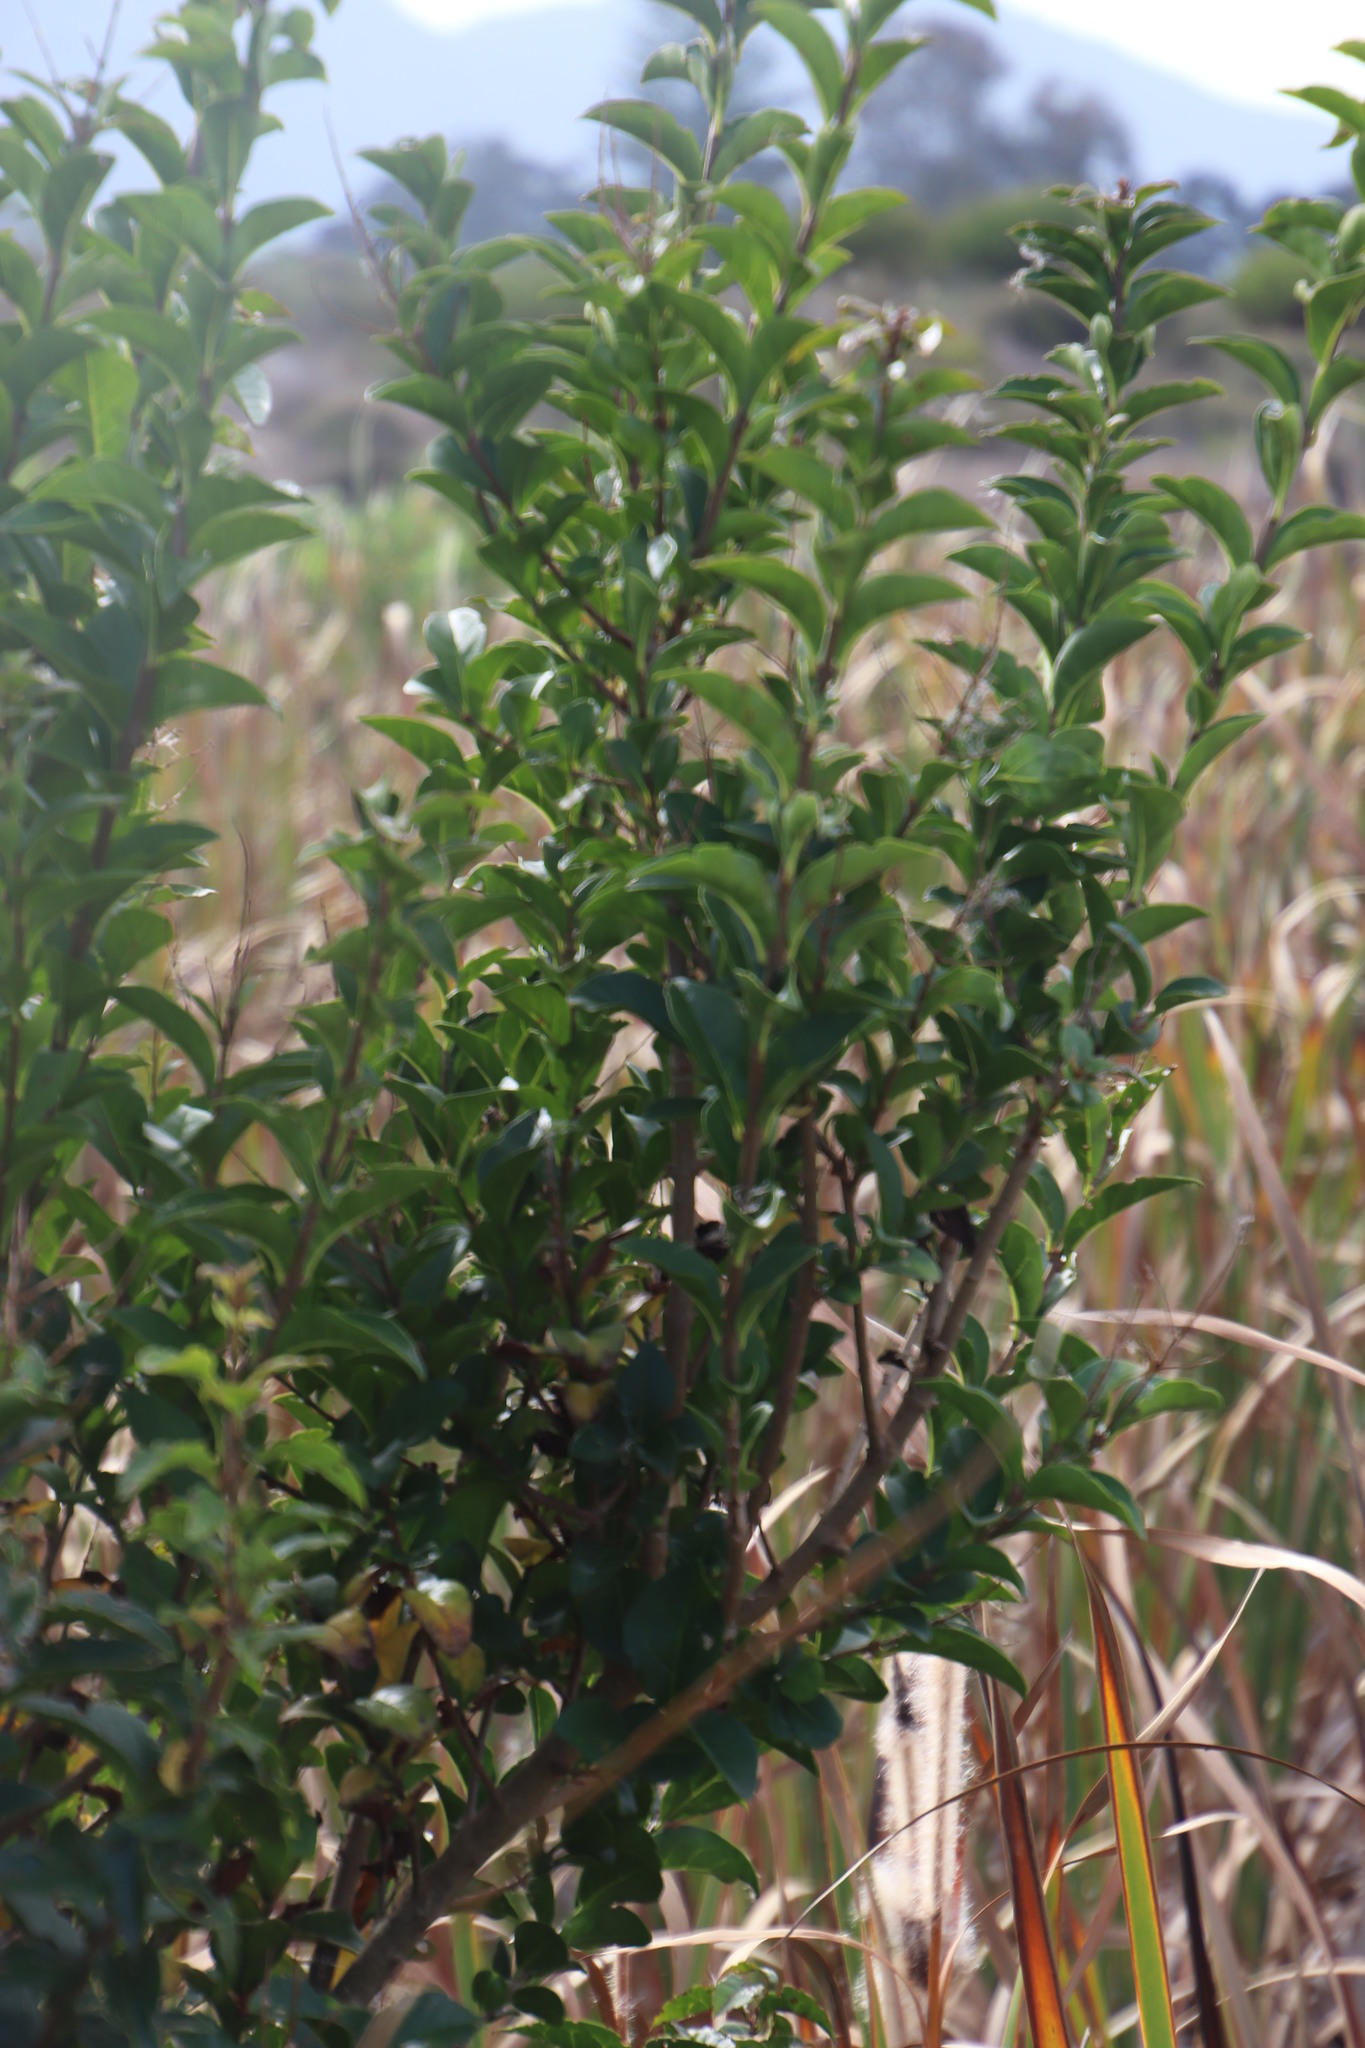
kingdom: Plantae
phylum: Tracheophyta
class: Magnoliopsida
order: Lamiales
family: Oleaceae
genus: Ligustrum
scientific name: Ligustrum lucidum
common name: Glossy privet
